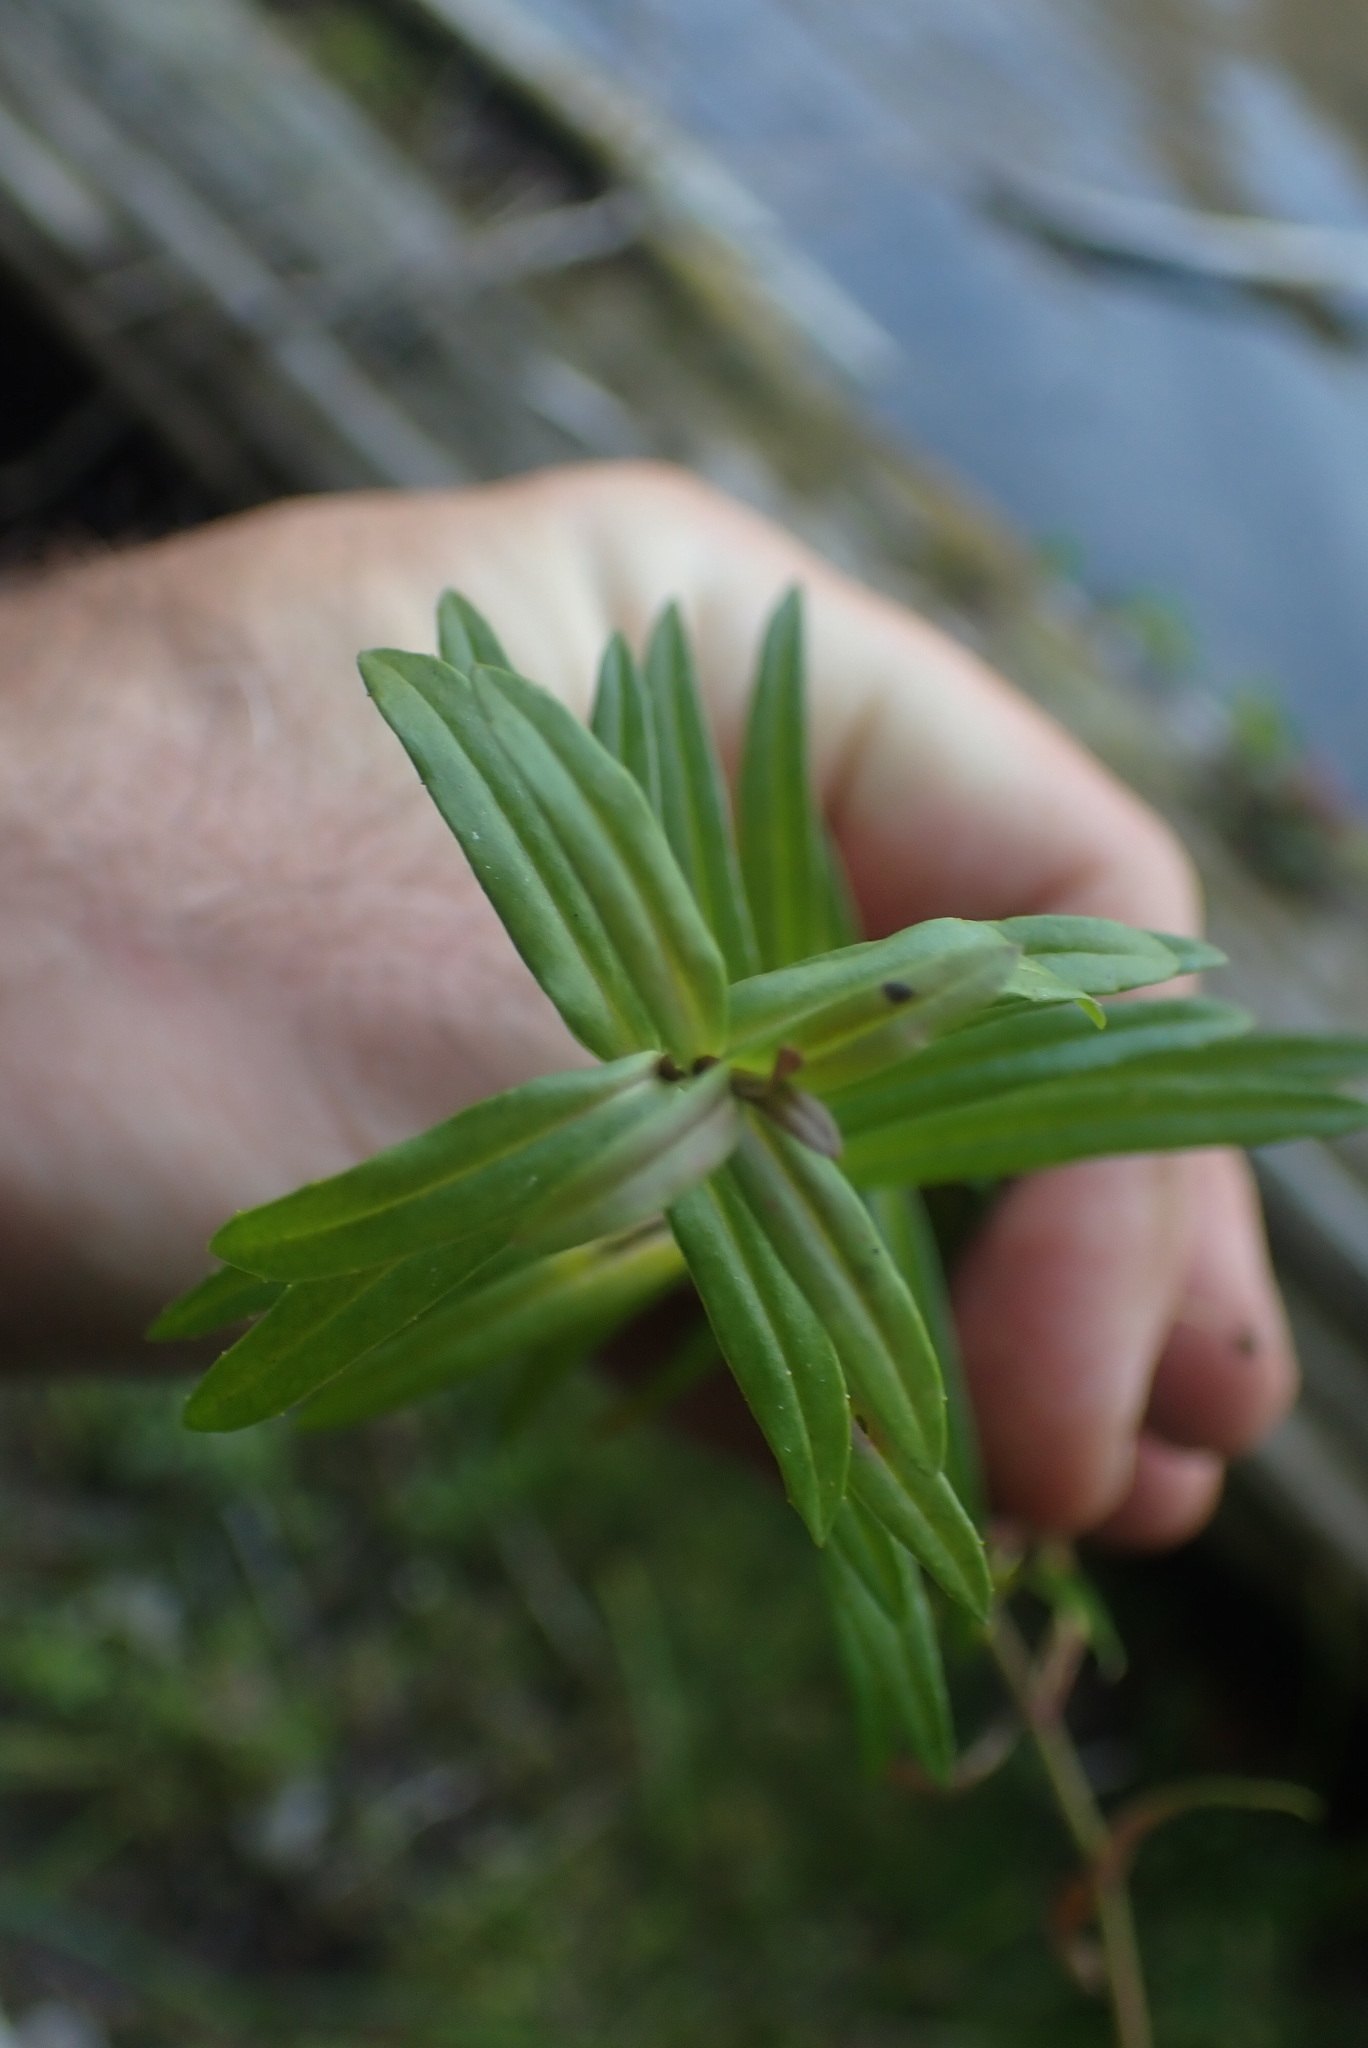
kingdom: Plantae
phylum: Tracheophyta
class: Magnoliopsida
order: Lamiales
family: Plantaginaceae
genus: Veronica
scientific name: Veronica scutellata
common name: Marsh speedwell
